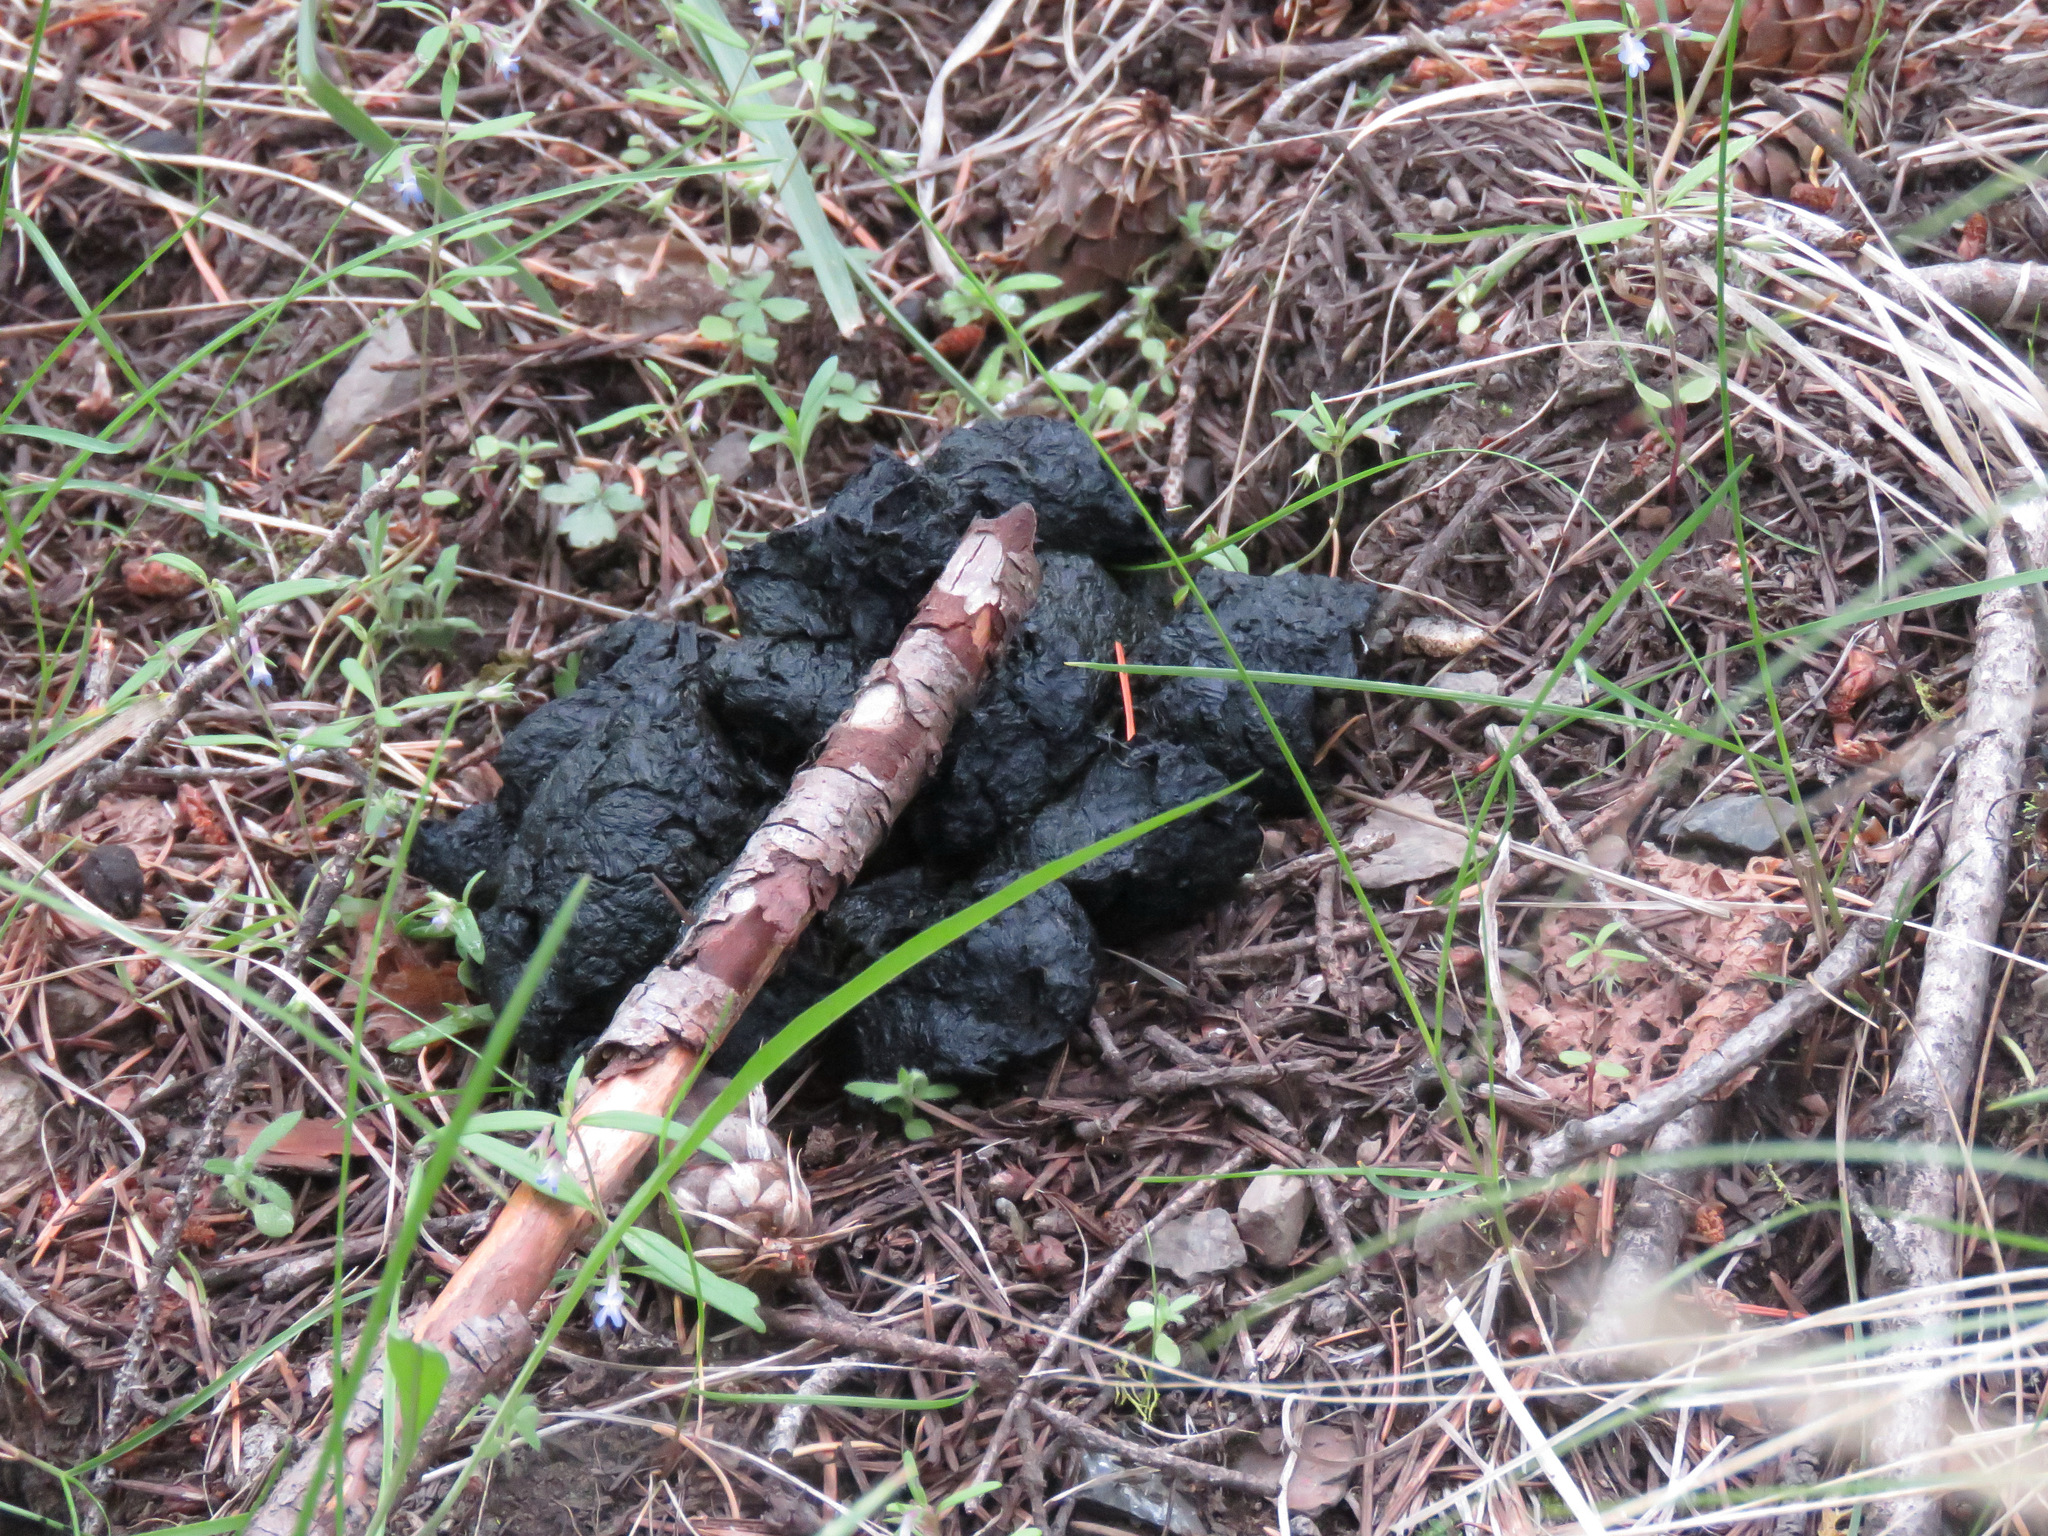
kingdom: Animalia
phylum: Chordata
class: Mammalia
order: Carnivora
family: Ursidae
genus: Ursus
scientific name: Ursus americanus
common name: American black bear
